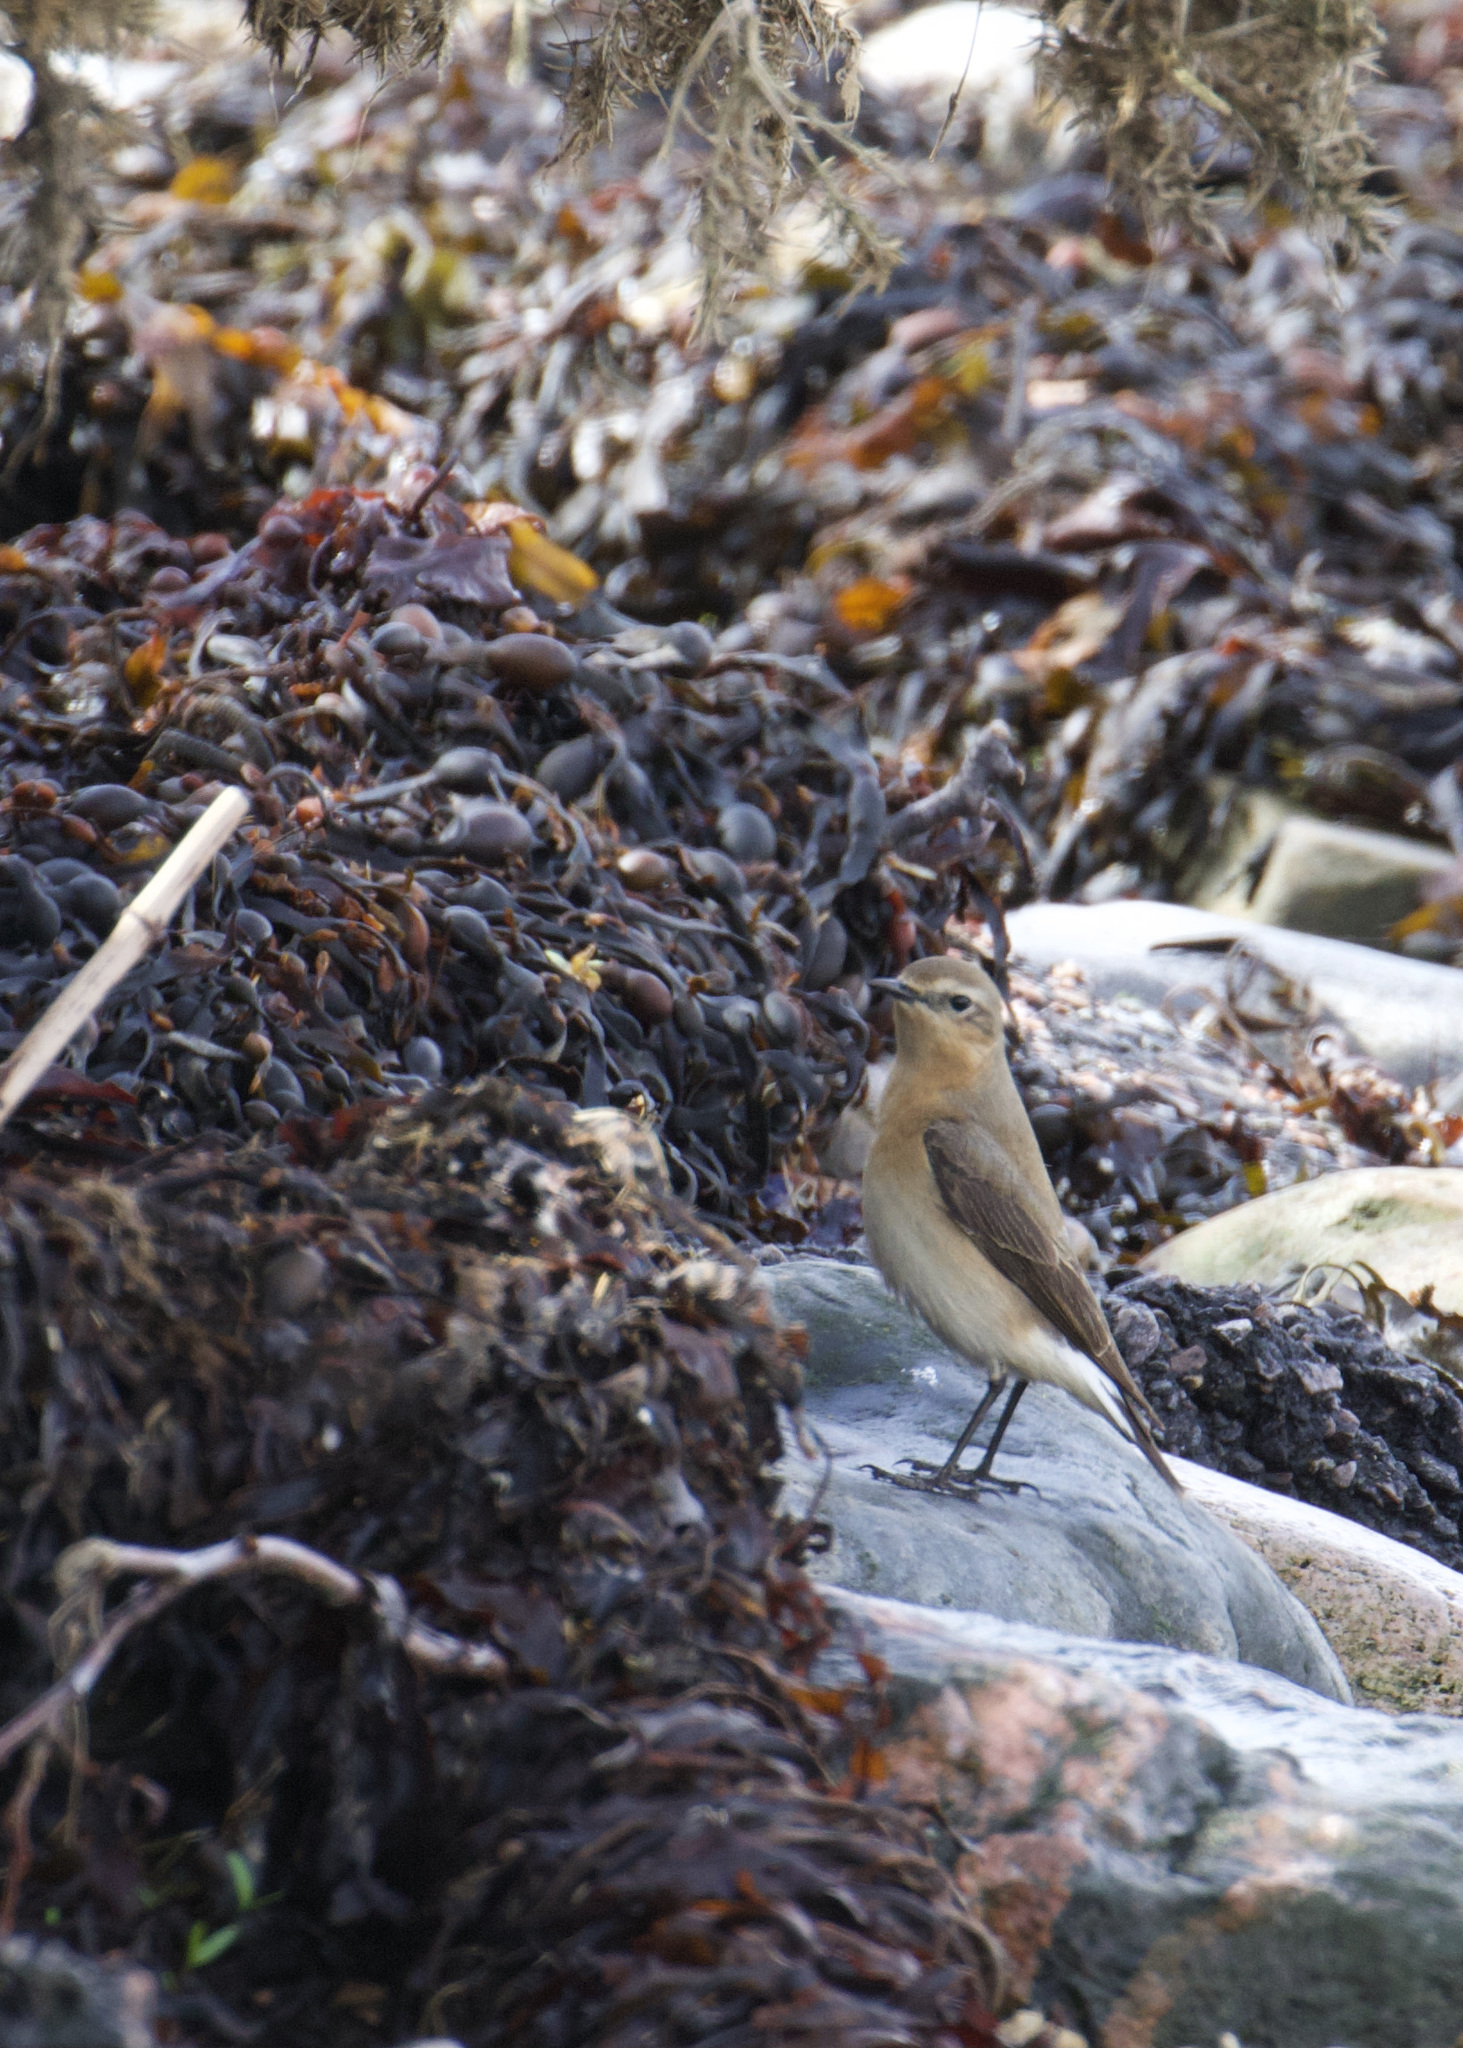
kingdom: Animalia
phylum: Chordata
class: Aves
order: Passeriformes
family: Muscicapidae
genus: Oenanthe
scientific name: Oenanthe oenanthe
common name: Northern wheatear
